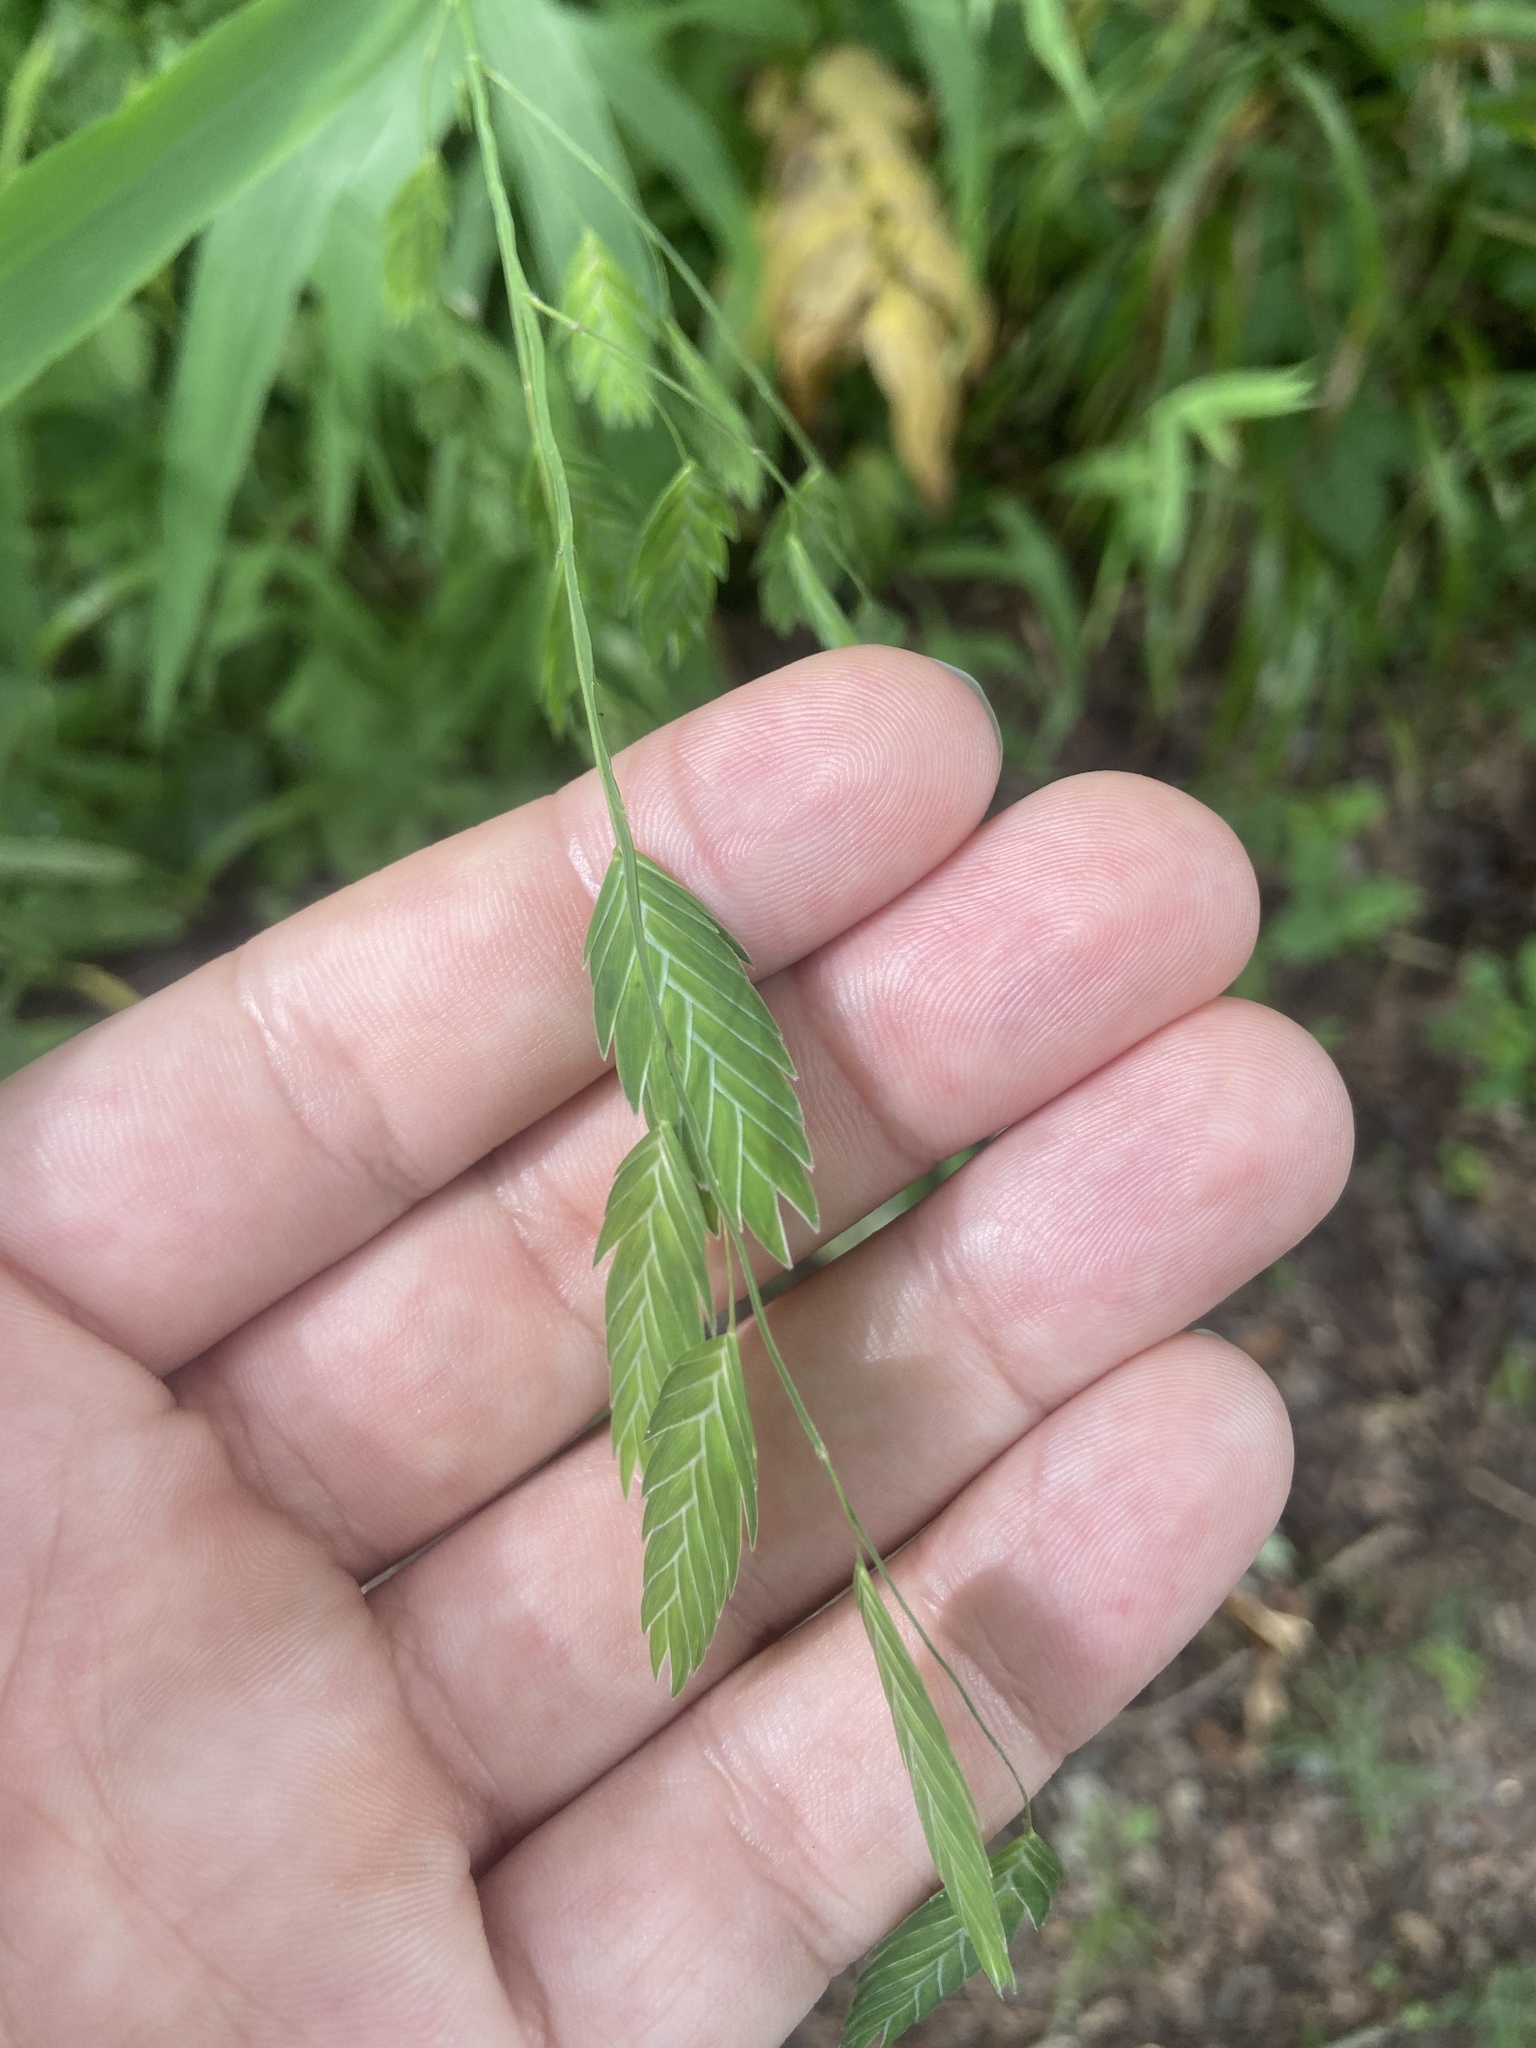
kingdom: Plantae
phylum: Tracheophyta
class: Liliopsida
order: Poales
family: Poaceae
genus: Chasmanthium
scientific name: Chasmanthium latifolium
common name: Broad-leaved chasmanthium
